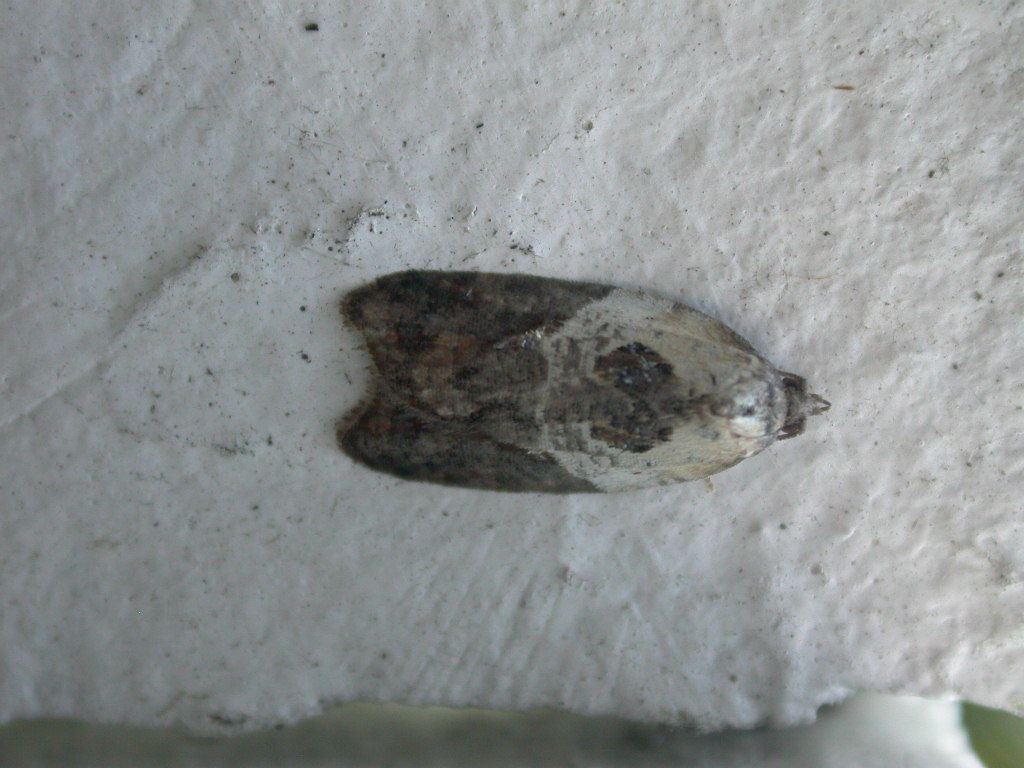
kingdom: Animalia
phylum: Arthropoda
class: Insecta
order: Lepidoptera
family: Tortricidae
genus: Acleris
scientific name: Acleris variegana
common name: Garden rose tortrix
